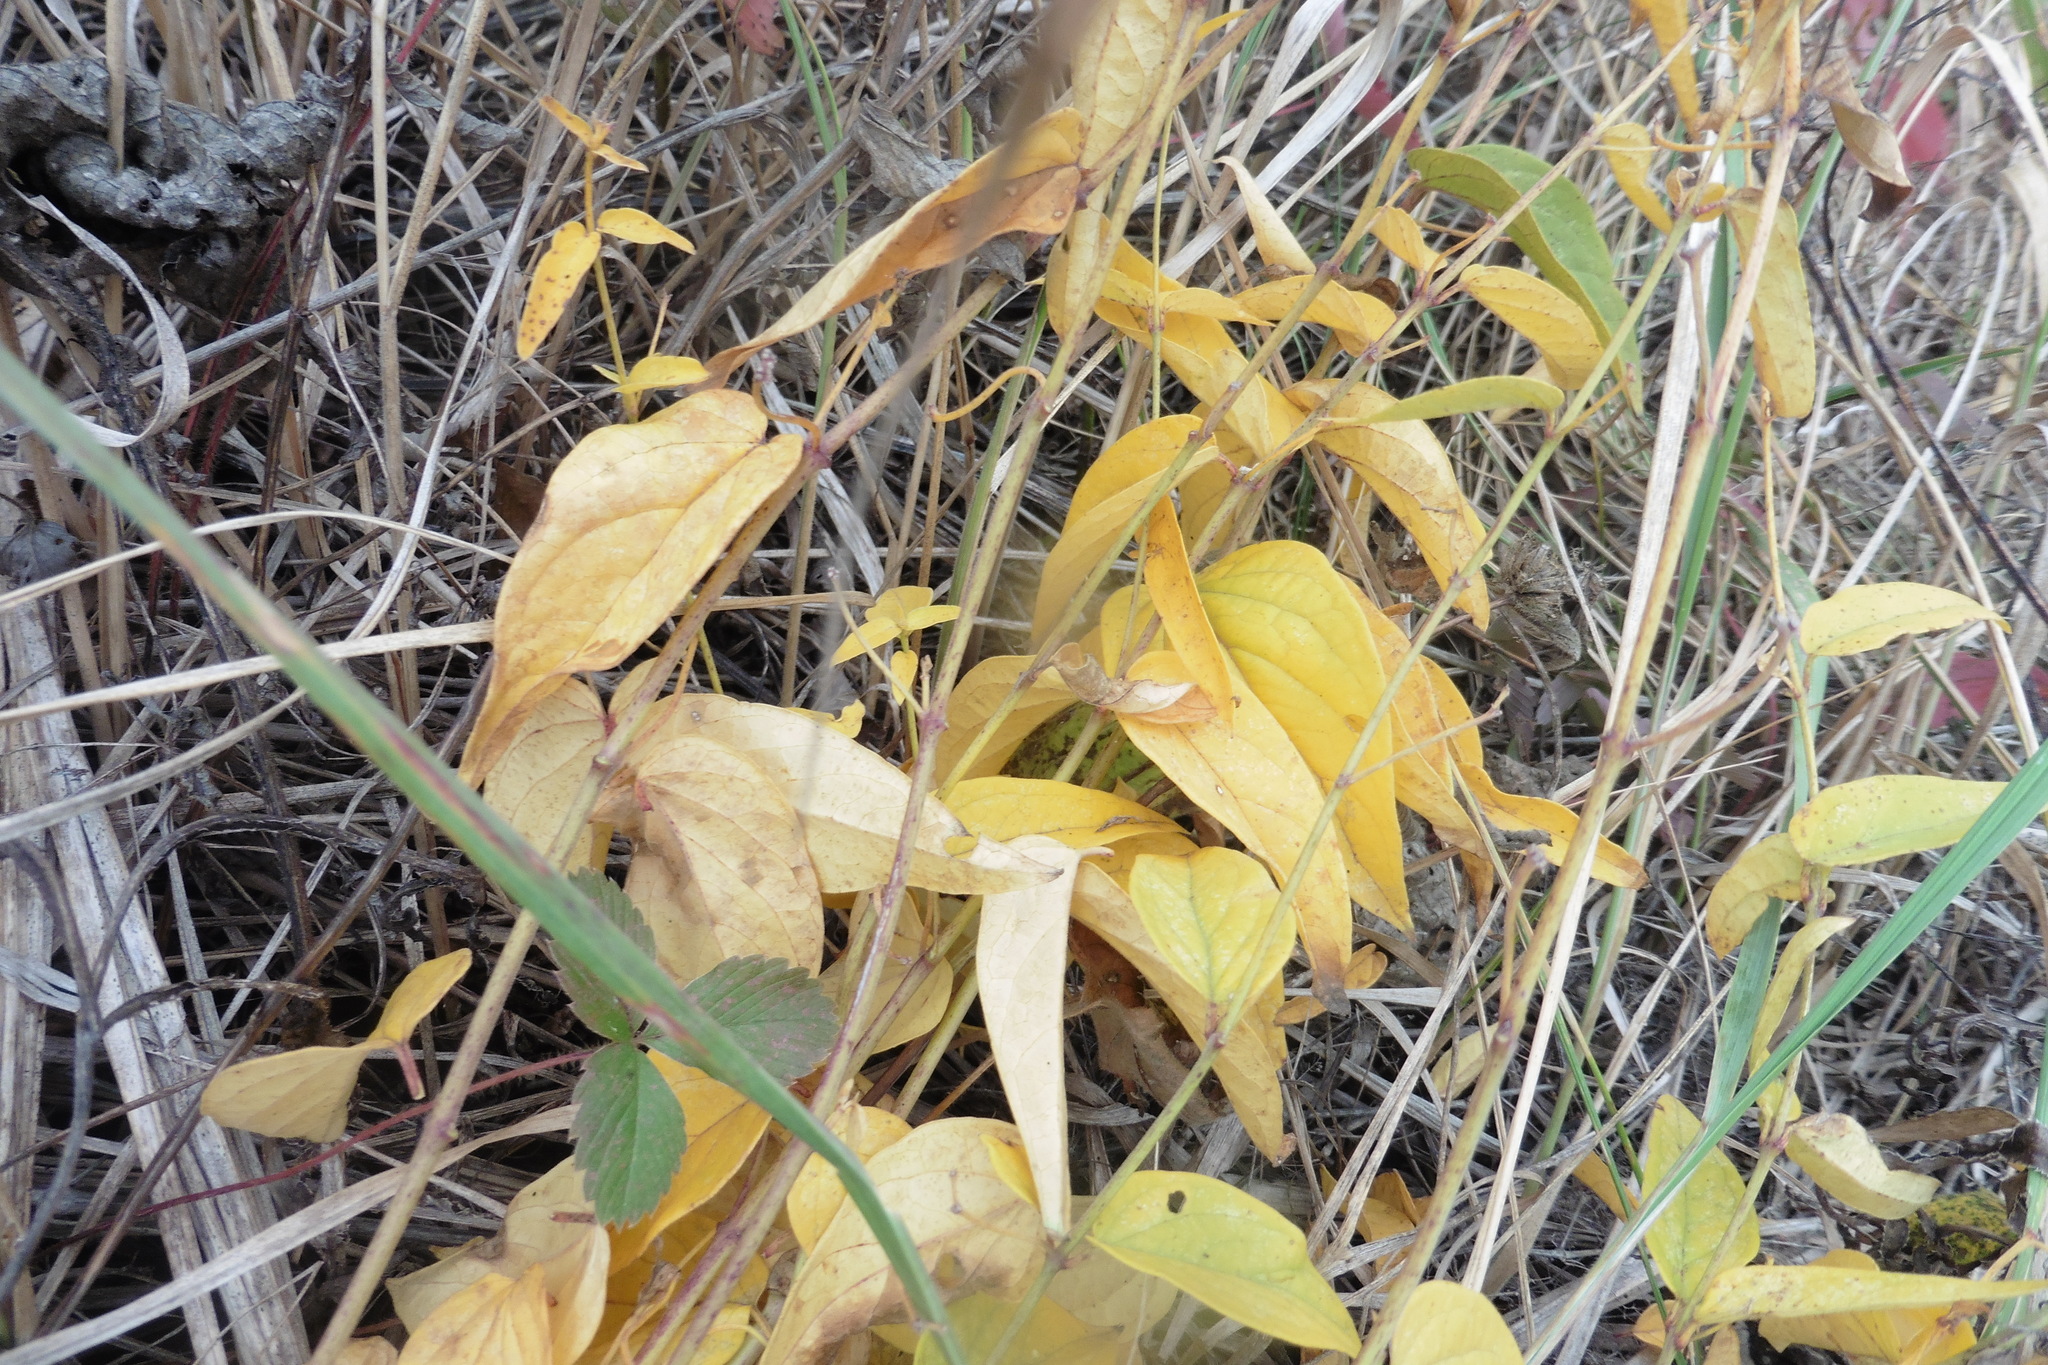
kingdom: Plantae
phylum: Tracheophyta
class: Magnoliopsida
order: Gentianales
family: Apocynaceae
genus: Vincetoxicum
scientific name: Vincetoxicum hirundinaria
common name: White swallowwort
